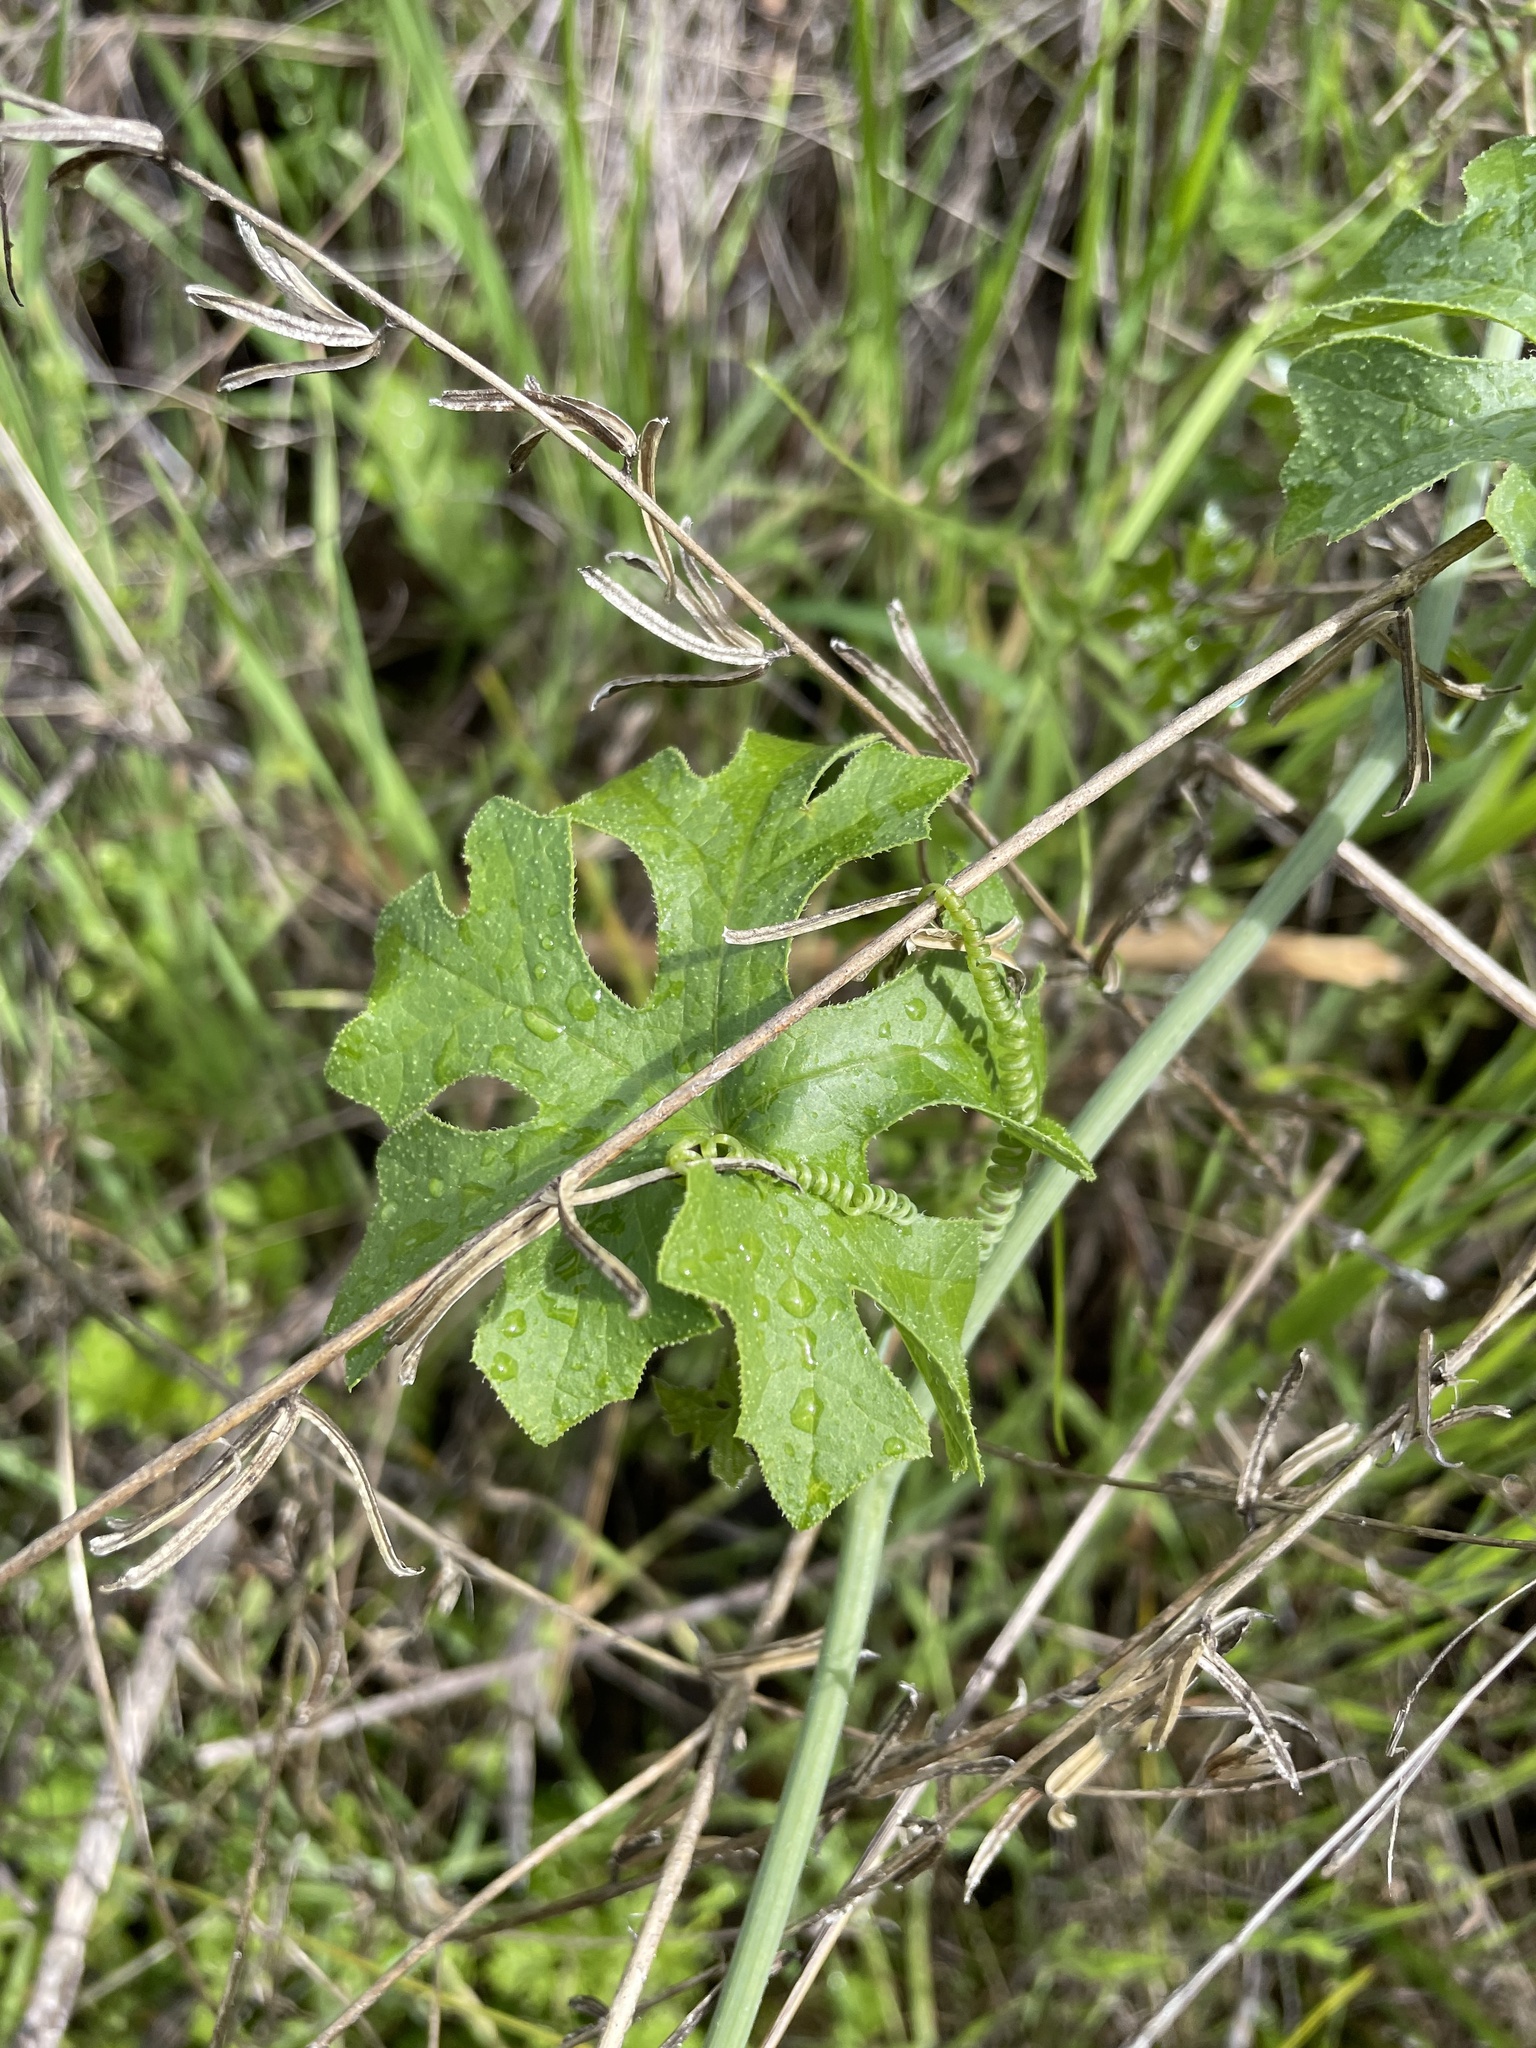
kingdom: Plantae
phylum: Tracheophyta
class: Magnoliopsida
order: Cucurbitales
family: Cucurbitaceae
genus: Marah
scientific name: Marah watsonii
